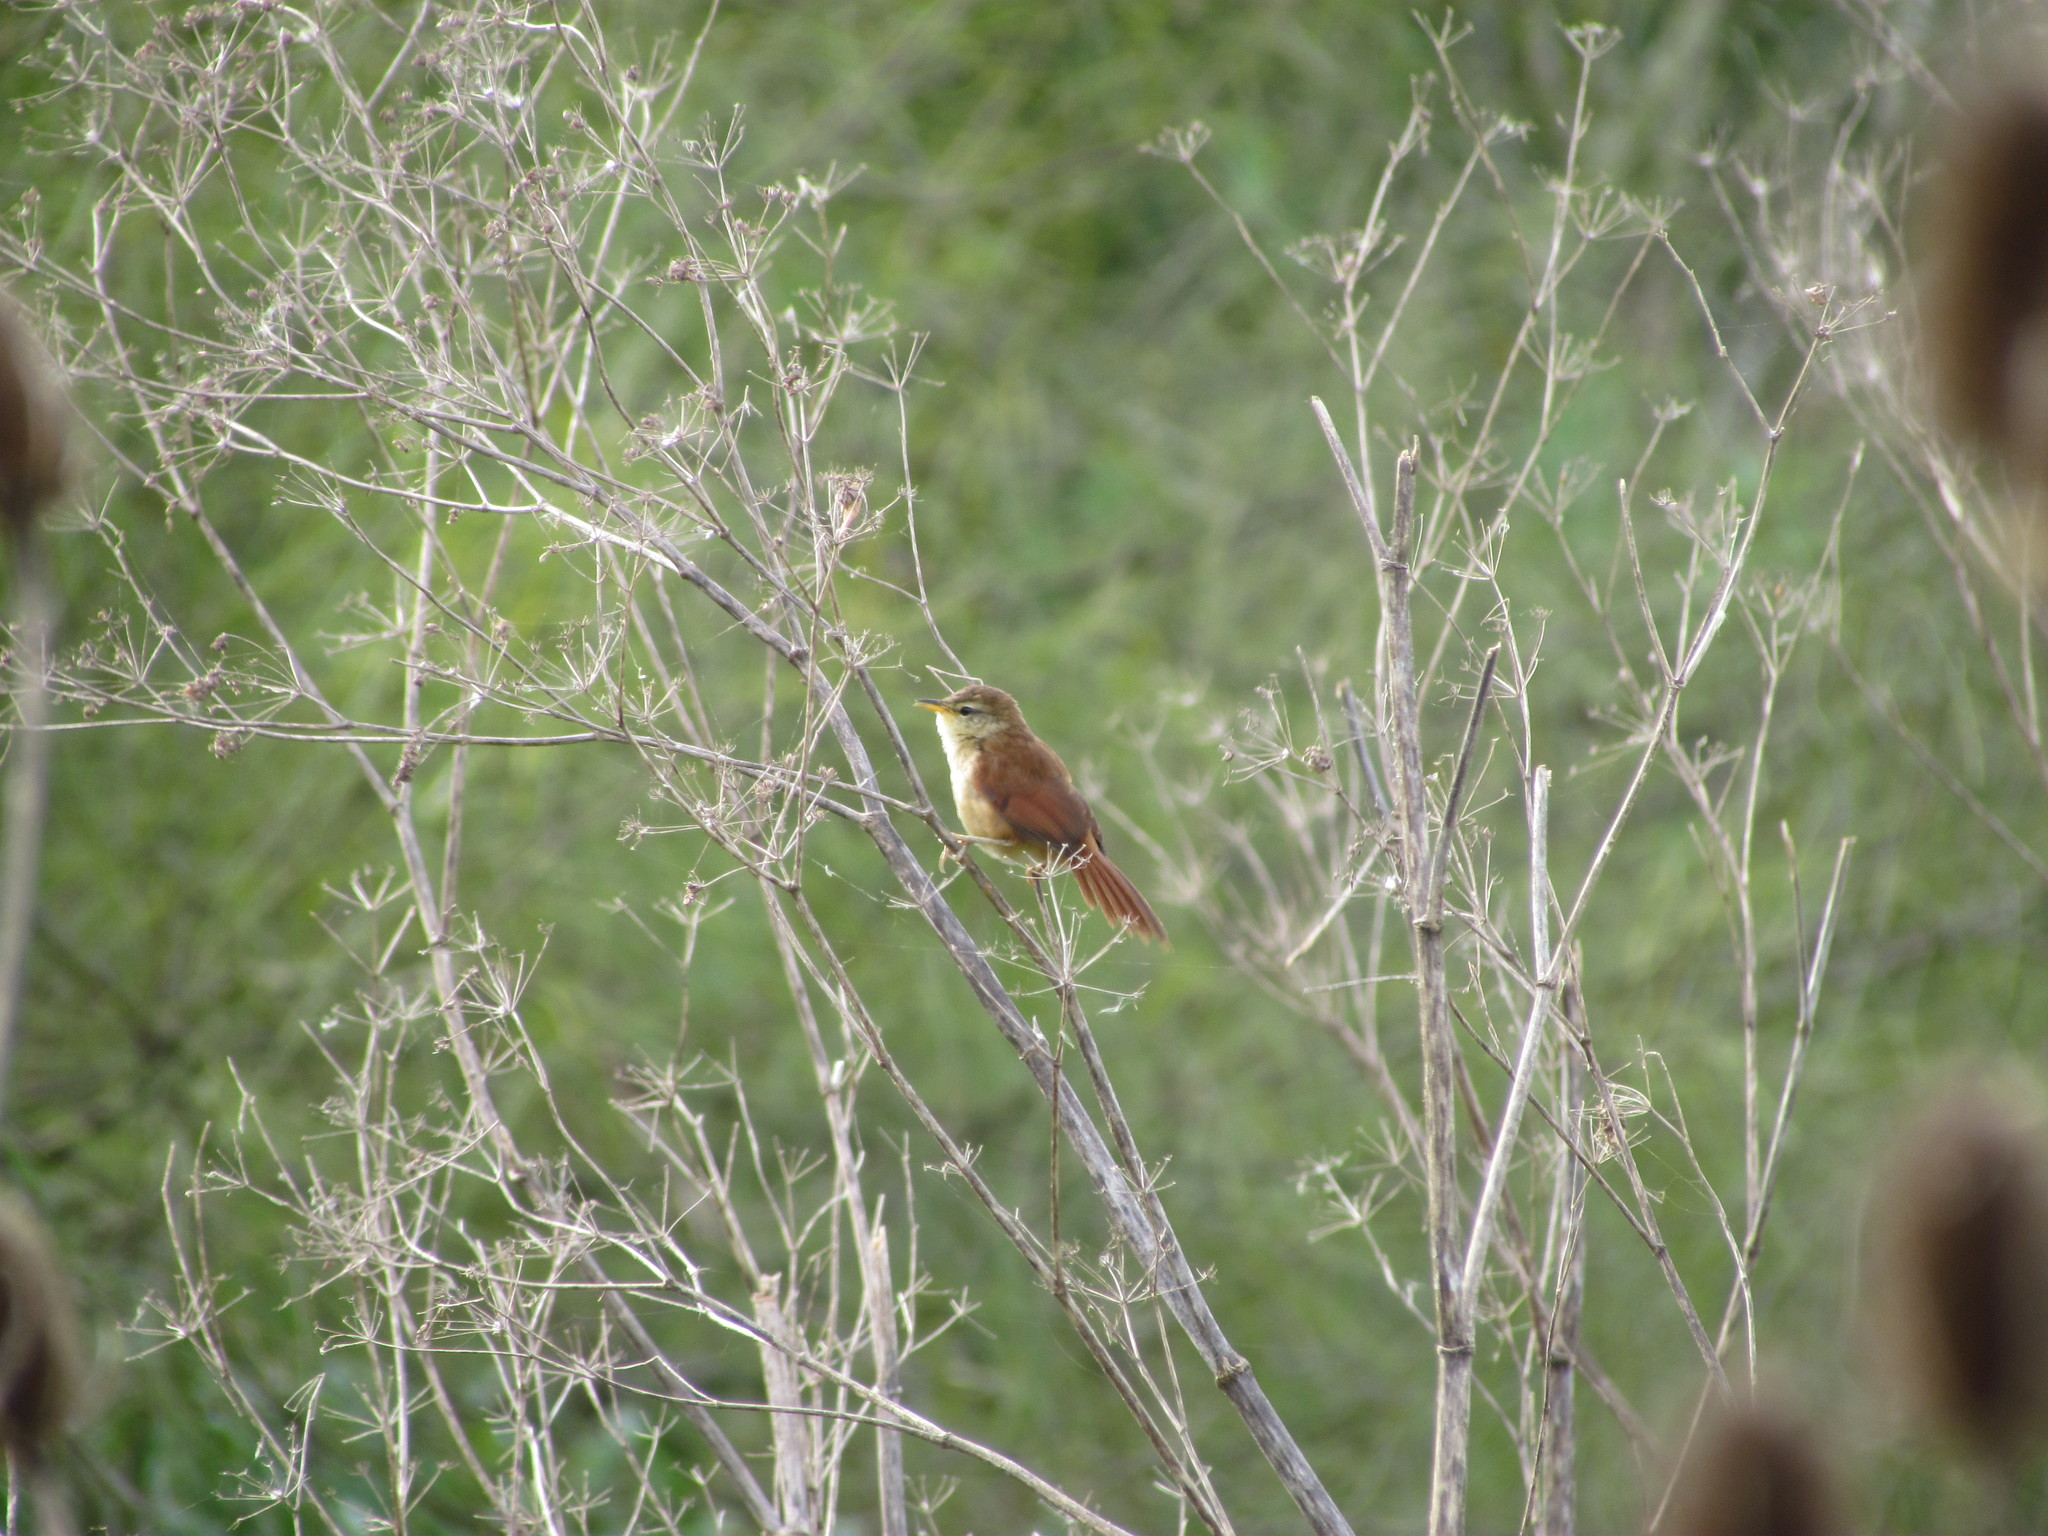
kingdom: Animalia
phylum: Chordata
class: Aves
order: Passeriformes
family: Furnariidae
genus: Certhiaxis
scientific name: Certhiaxis cinnamomeus
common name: Yellow-chinned spinetail
